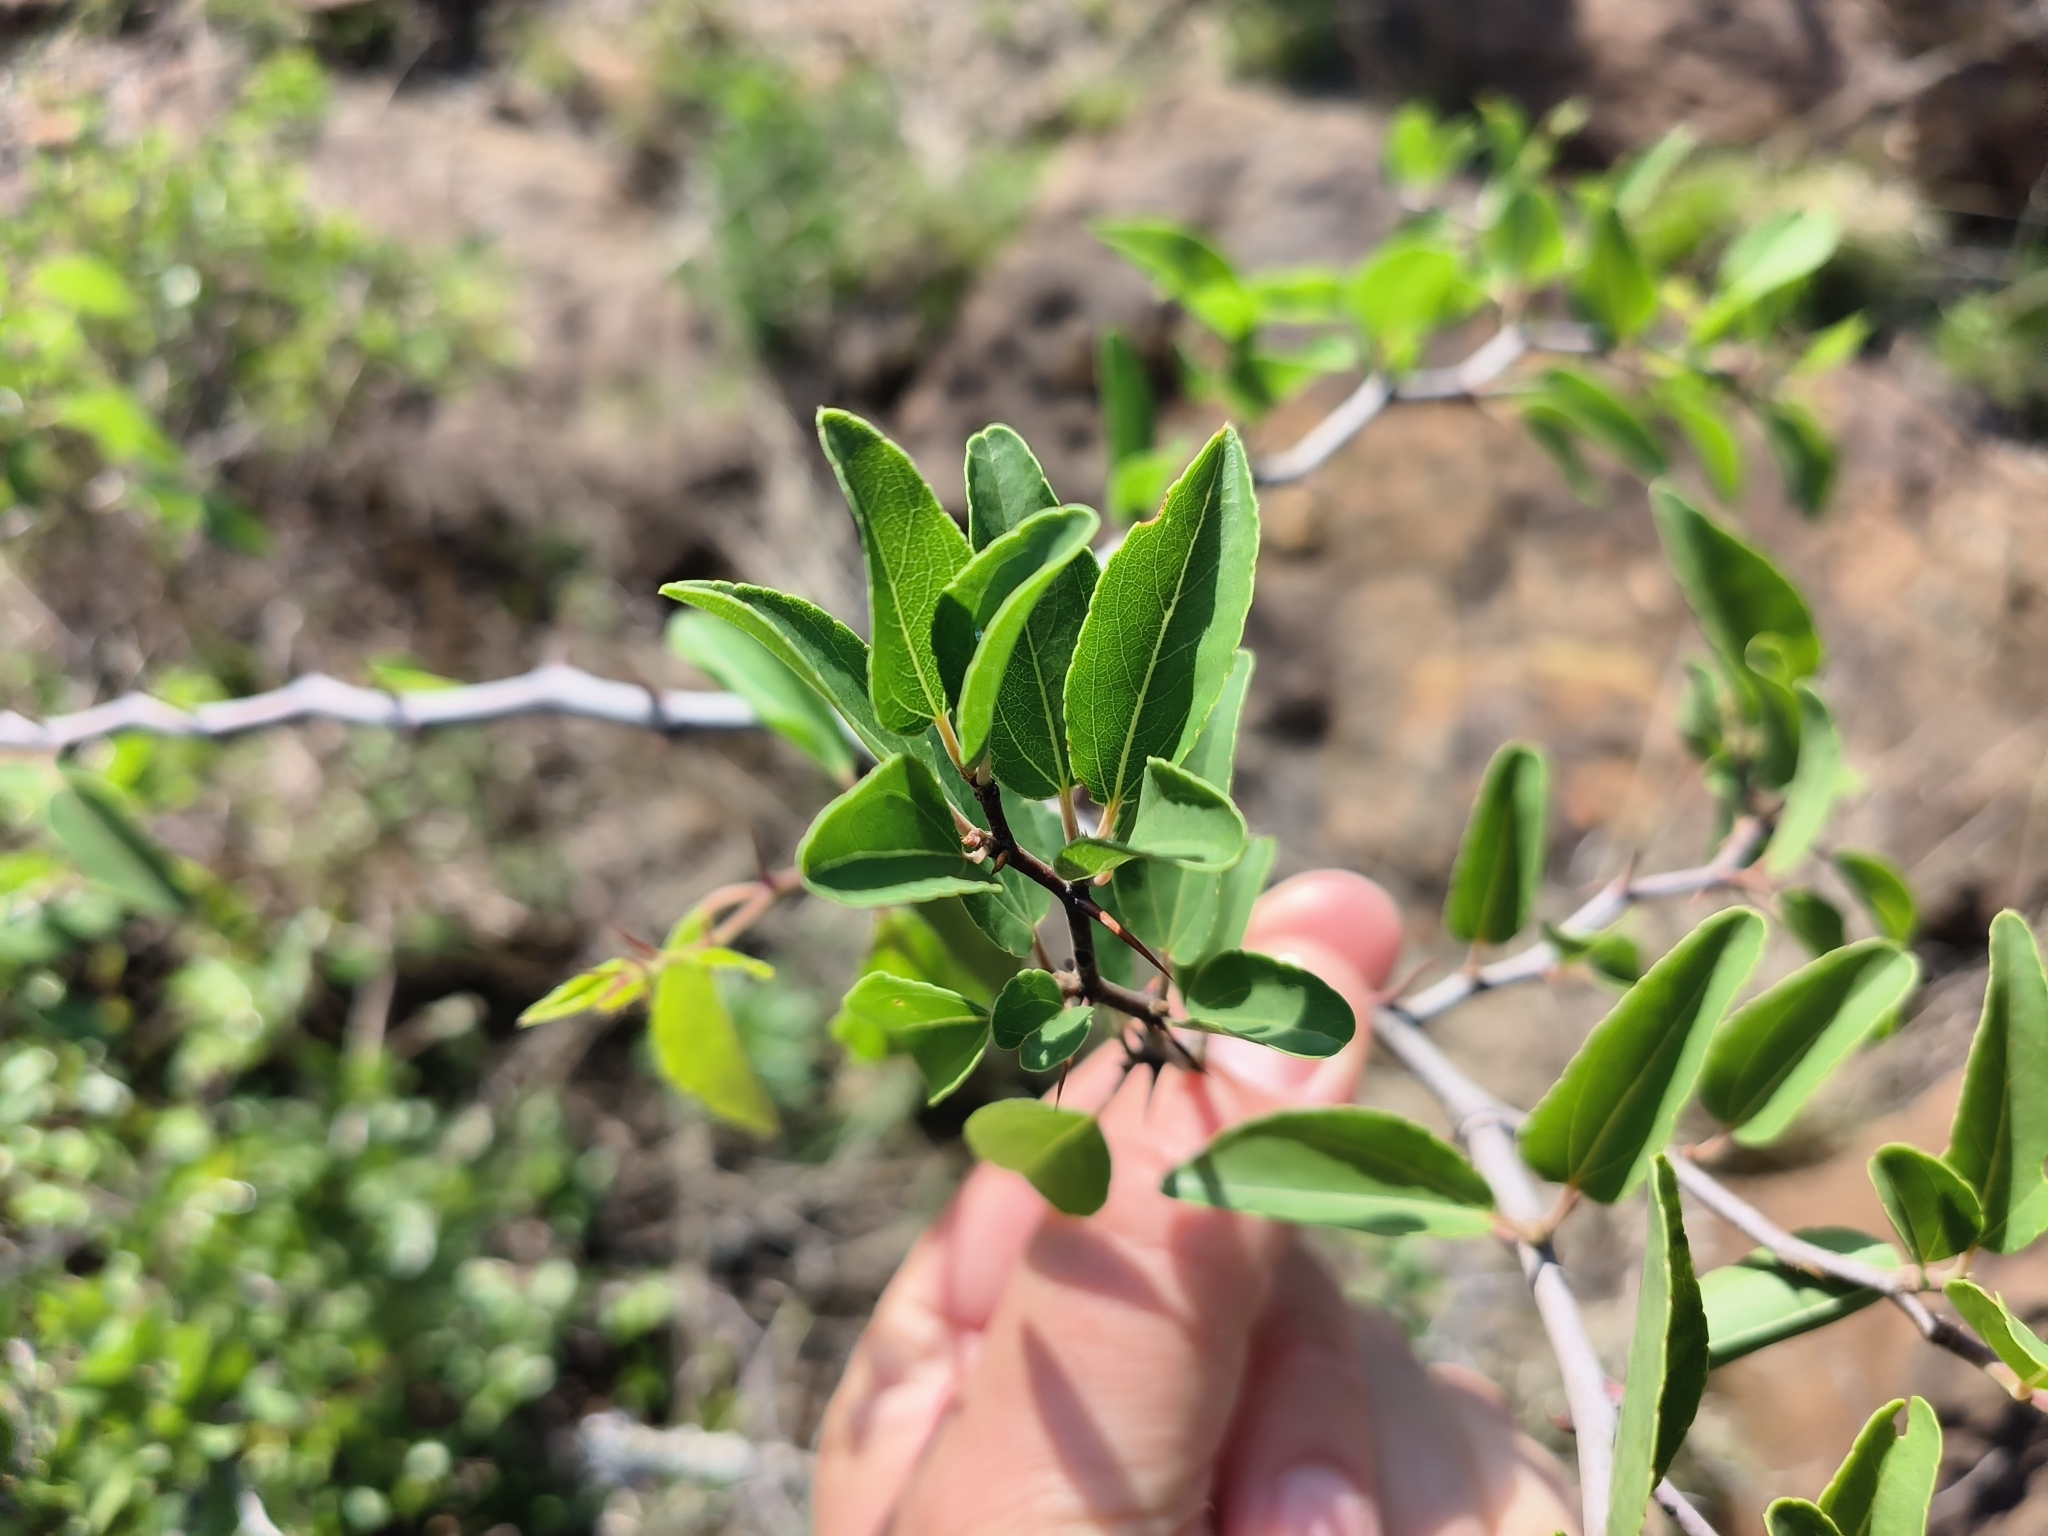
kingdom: Plantae
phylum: Tracheophyta
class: Magnoliopsida
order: Rosales
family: Rhamnaceae
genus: Ziziphus
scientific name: Ziziphus mucronata
